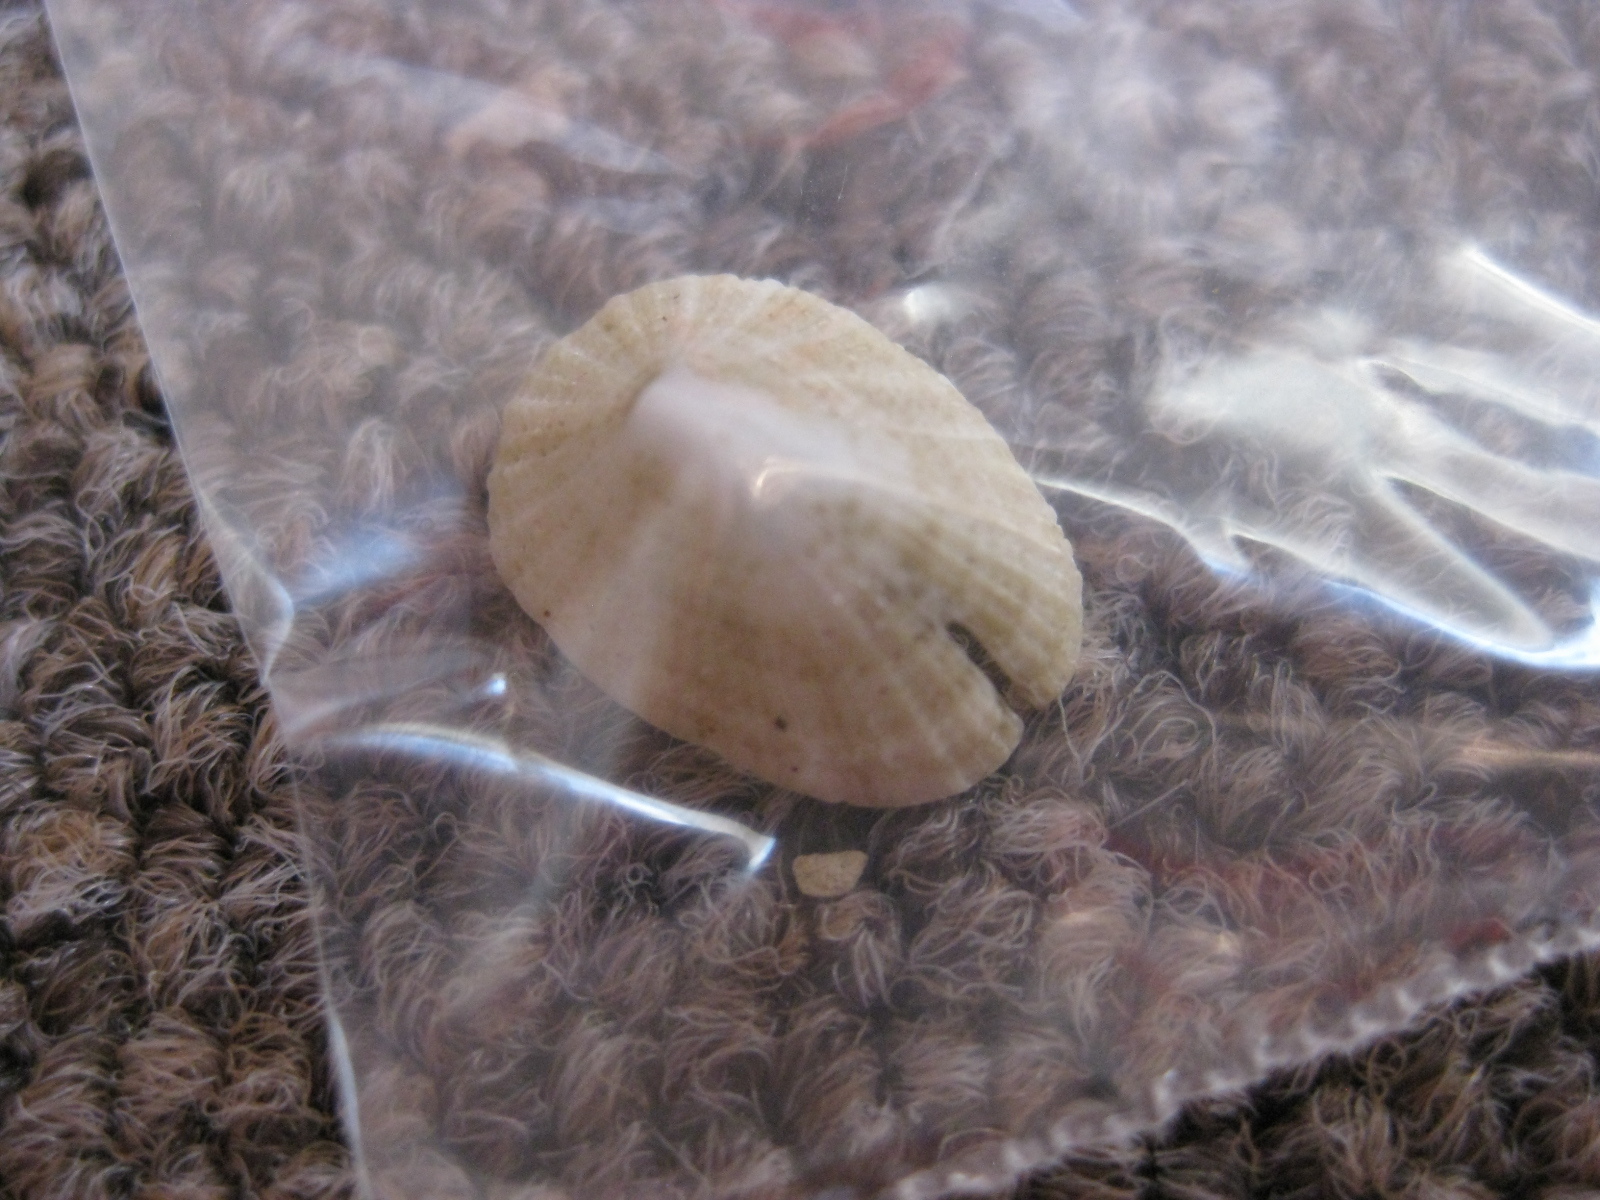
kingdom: Animalia
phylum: Mollusca
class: Gastropoda
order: Lepetellida
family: Fissurellidae
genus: Emarginula
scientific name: Emarginula striatula
